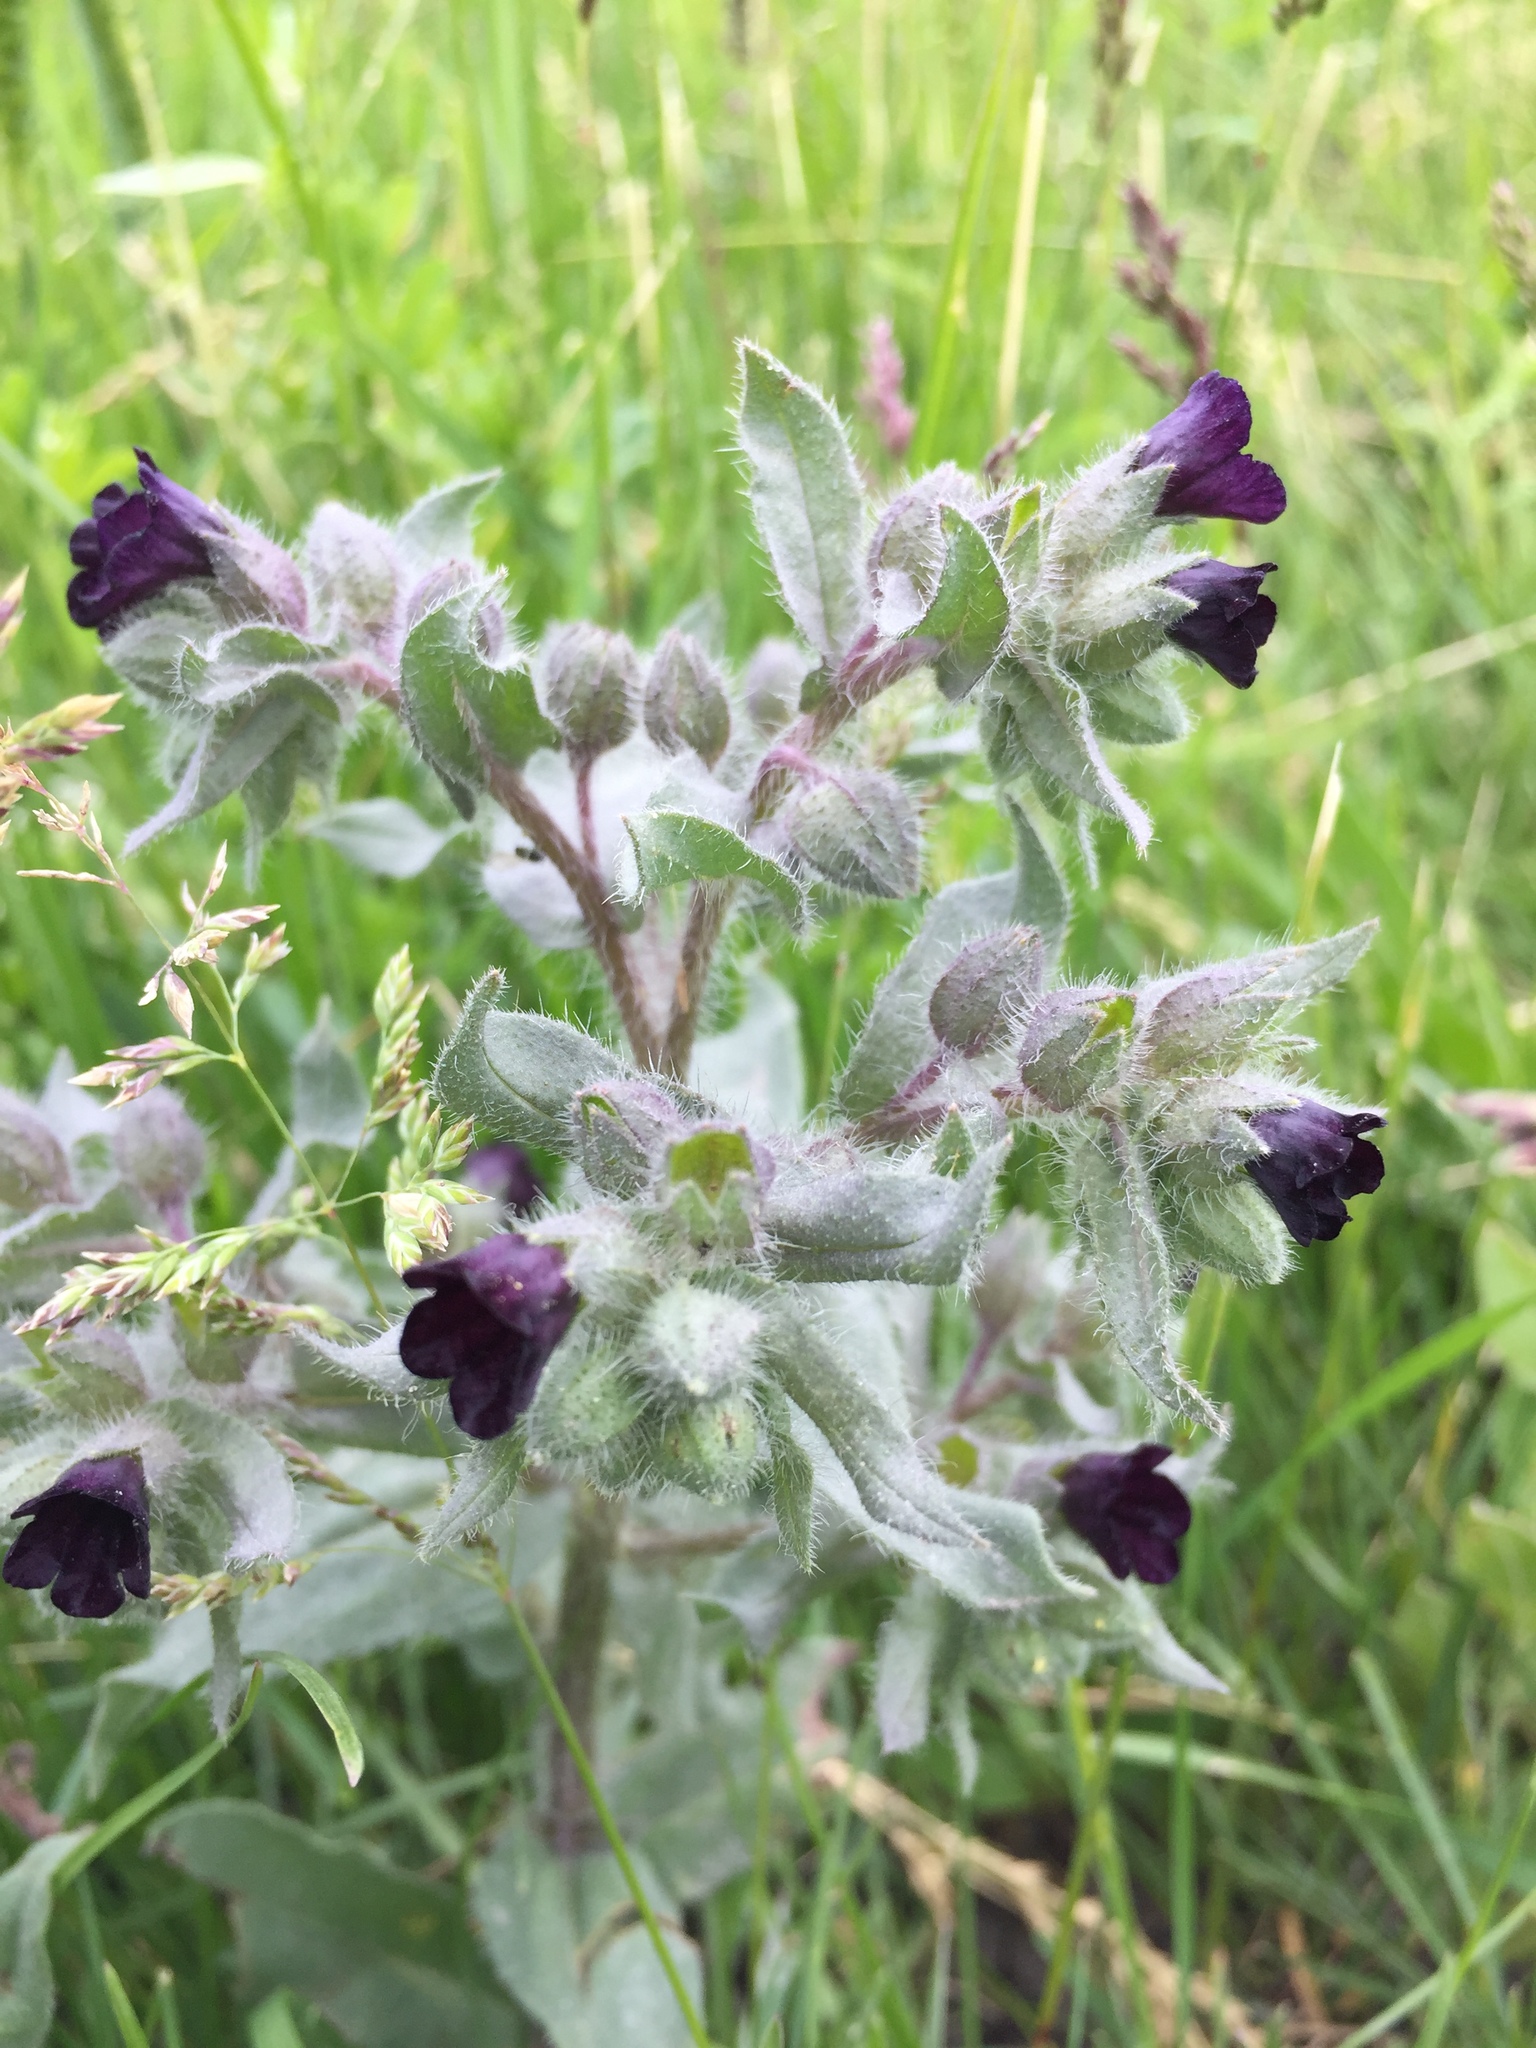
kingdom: Plantae
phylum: Tracheophyta
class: Magnoliopsida
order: Boraginales
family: Boraginaceae
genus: Nonea
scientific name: Nonea pulla
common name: Brown nonea
